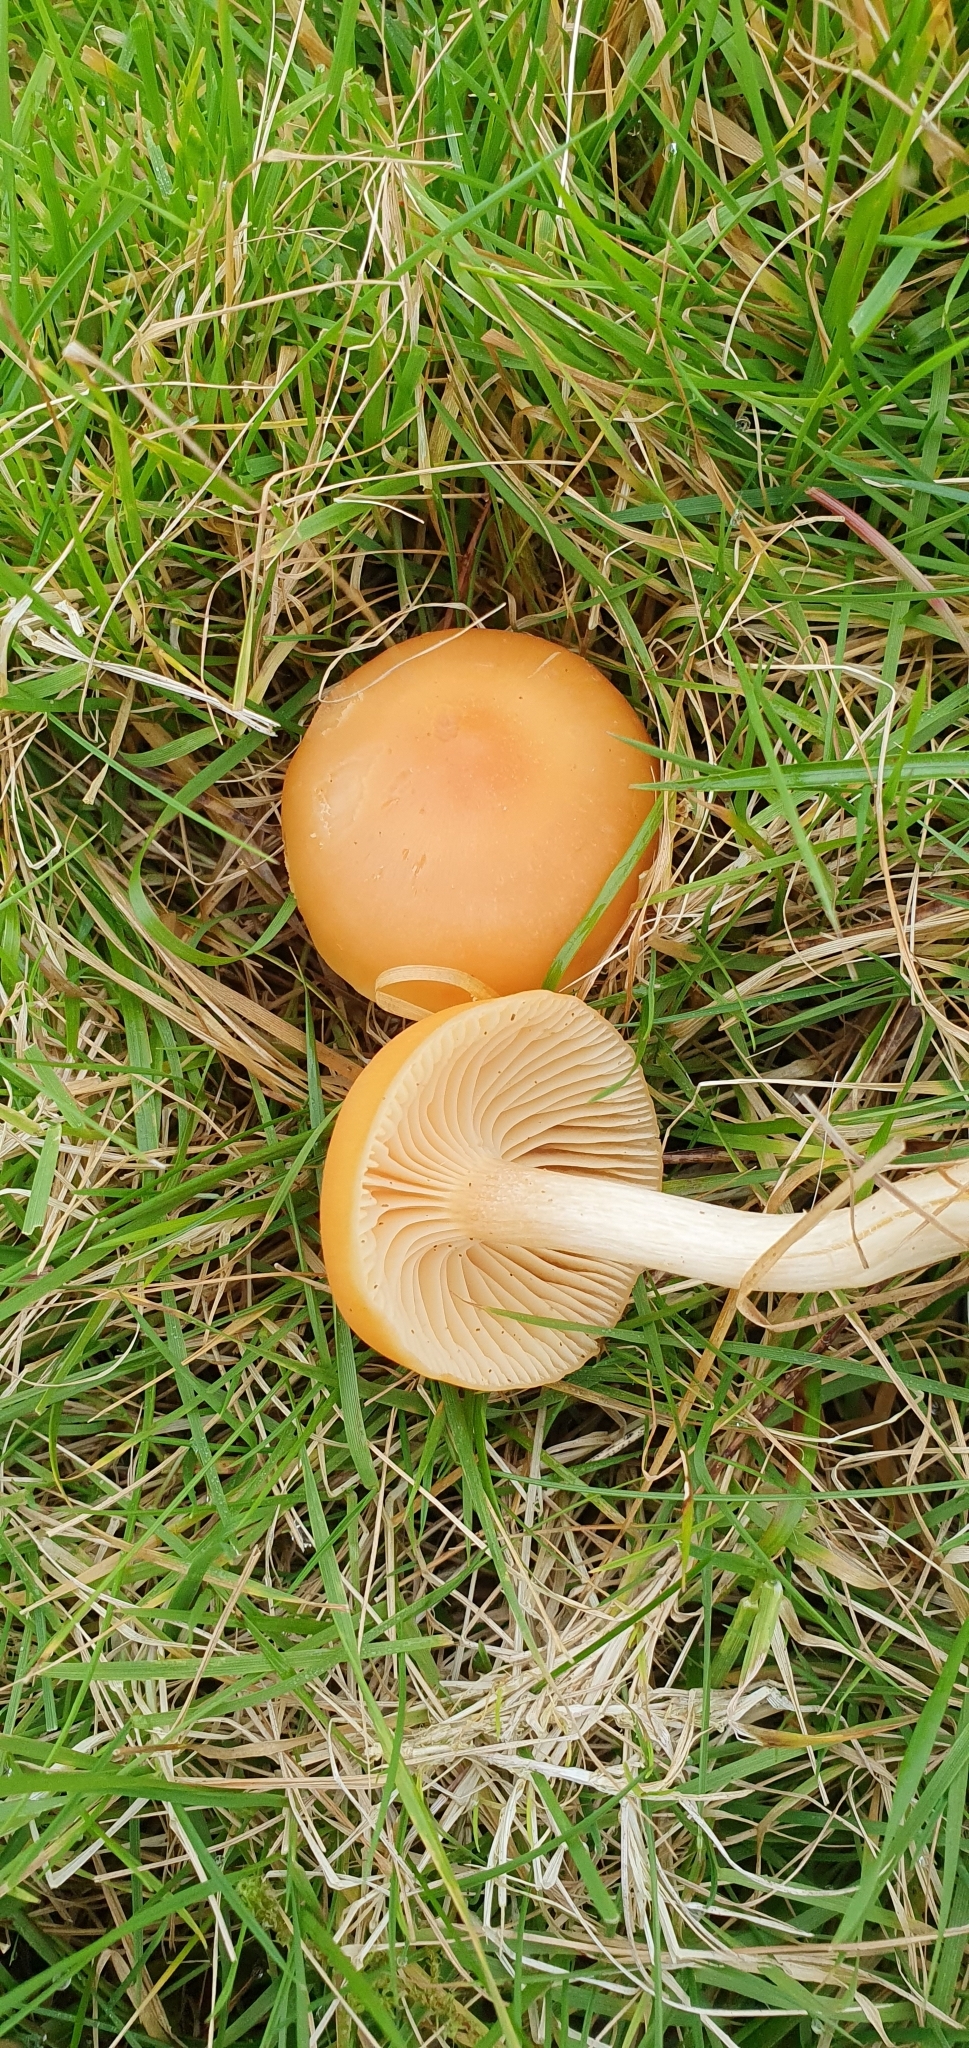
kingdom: Fungi
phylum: Basidiomycota
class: Agaricomycetes
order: Agaricales
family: Hygrophoraceae
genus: Cuphophyllus
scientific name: Cuphophyllus pratensis
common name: Meadow waxcap
